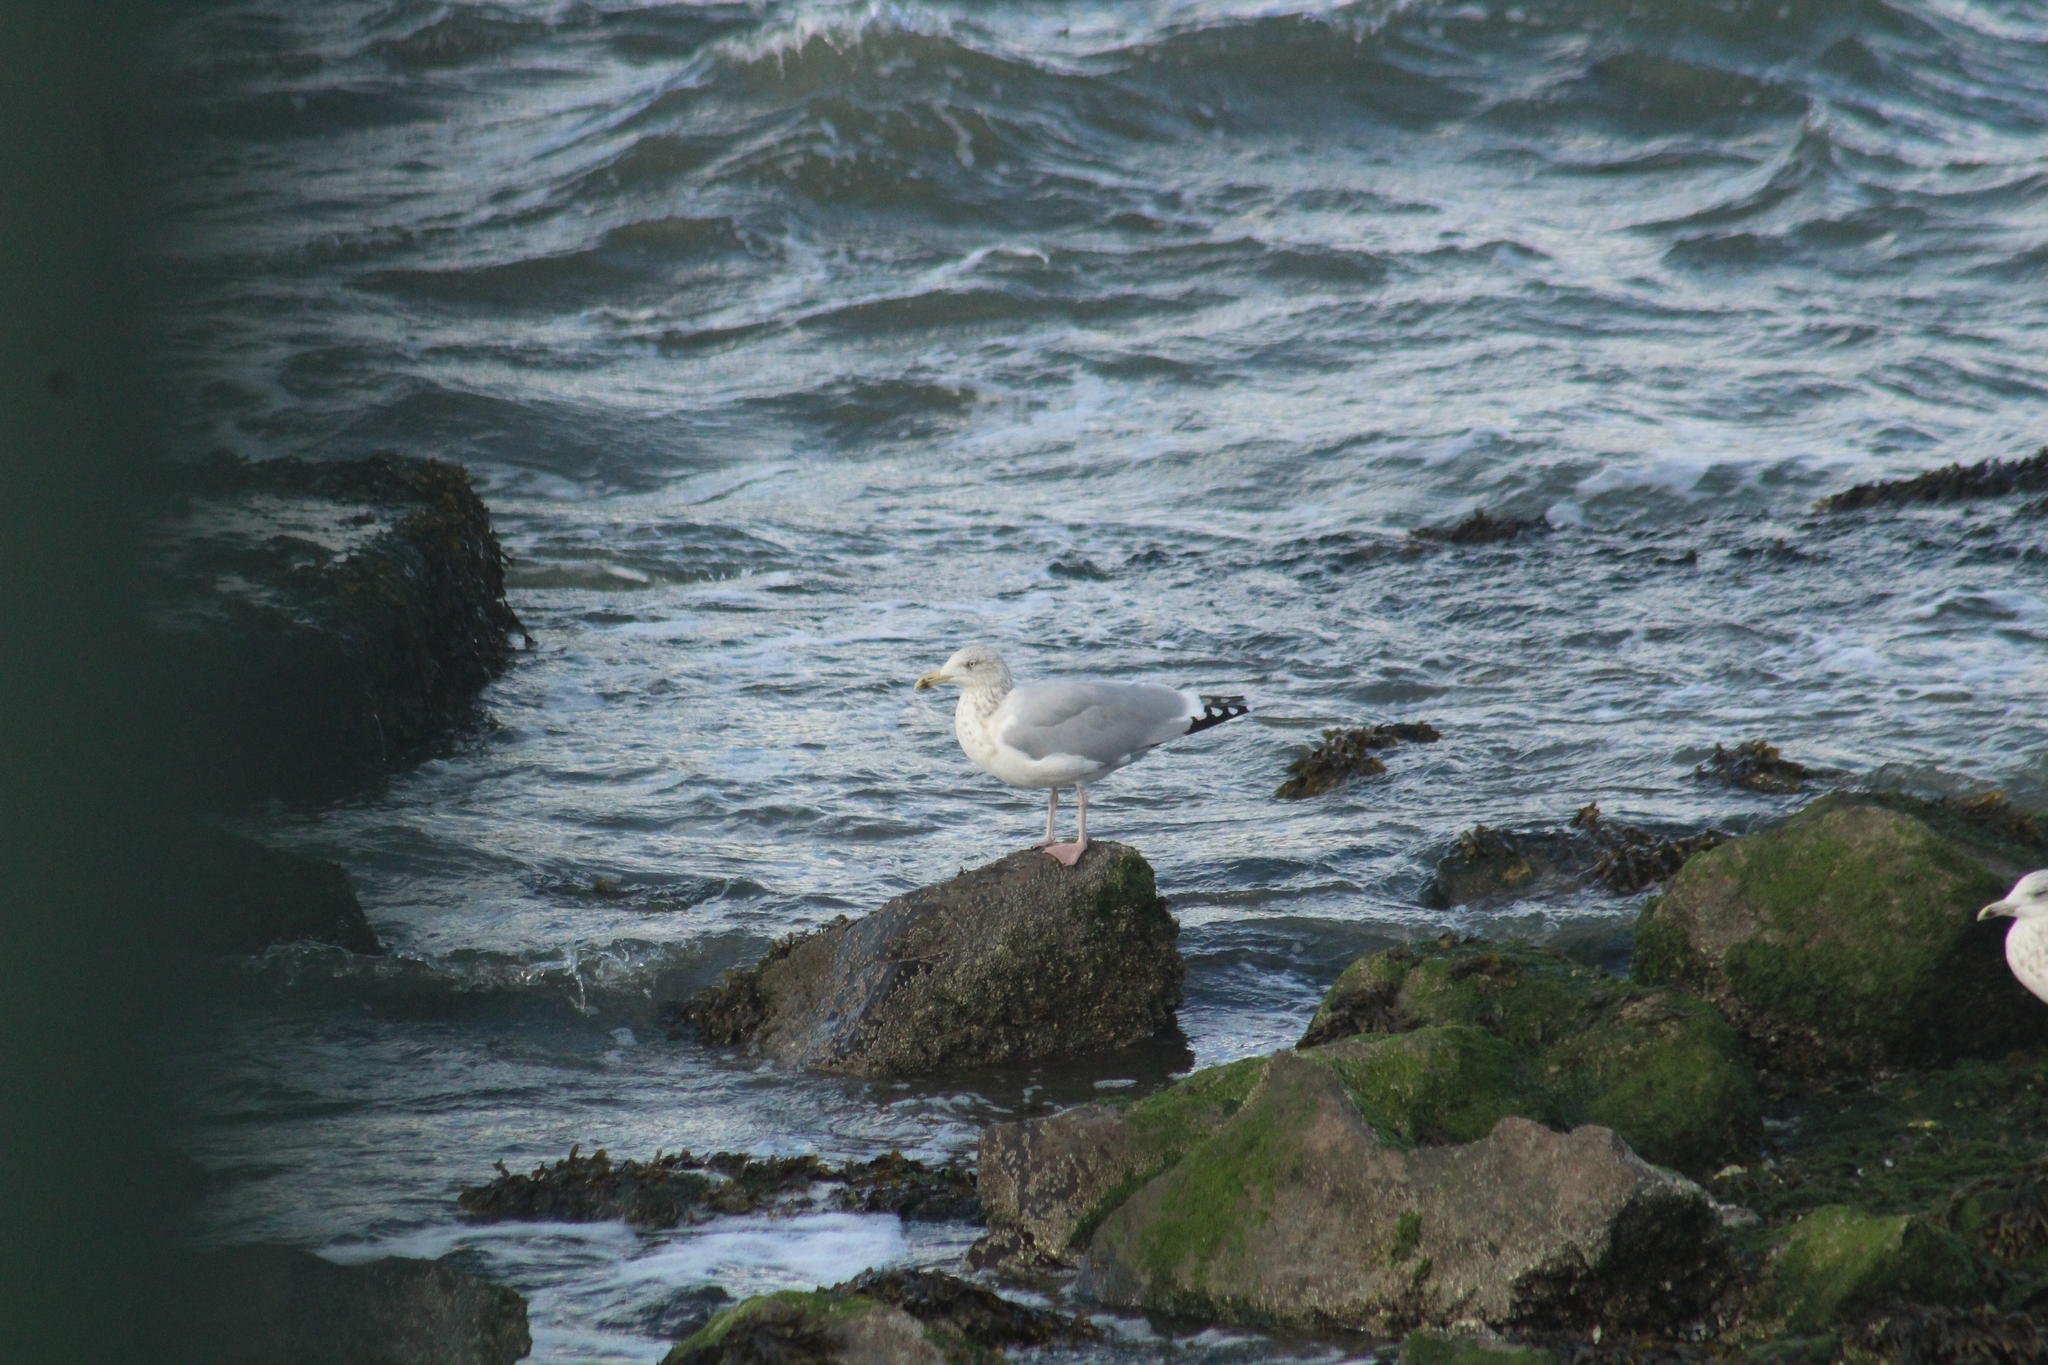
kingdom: Animalia
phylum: Chordata
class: Aves
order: Charadriiformes
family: Laridae
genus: Larus
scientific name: Larus argentatus
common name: Herring gull
